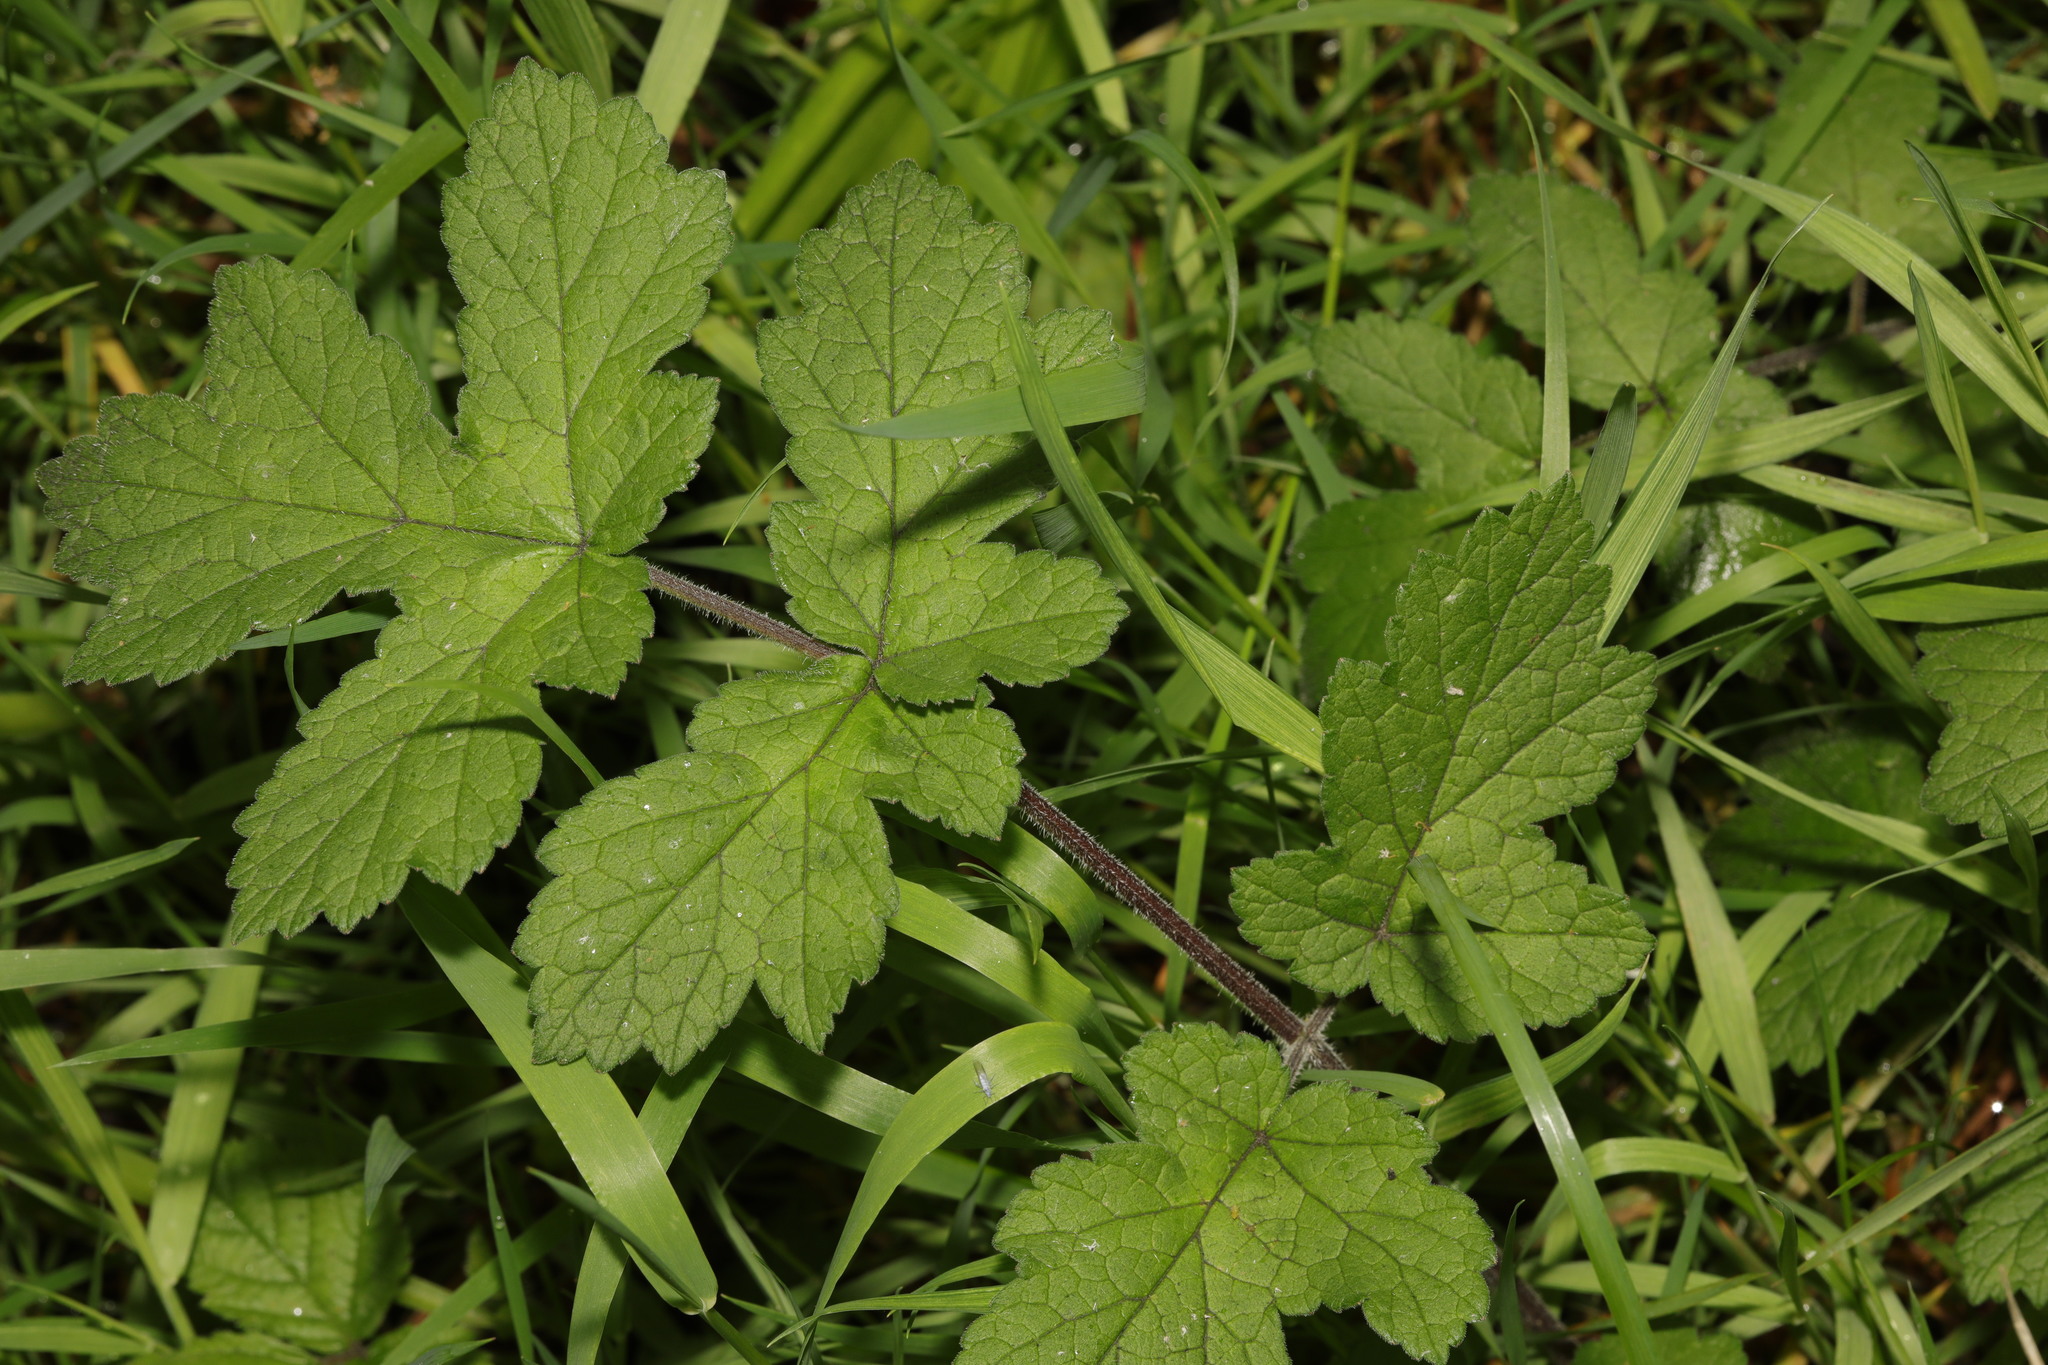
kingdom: Plantae
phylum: Tracheophyta
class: Magnoliopsida
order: Apiales
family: Apiaceae
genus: Heracleum
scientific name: Heracleum sphondylium
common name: Hogweed
